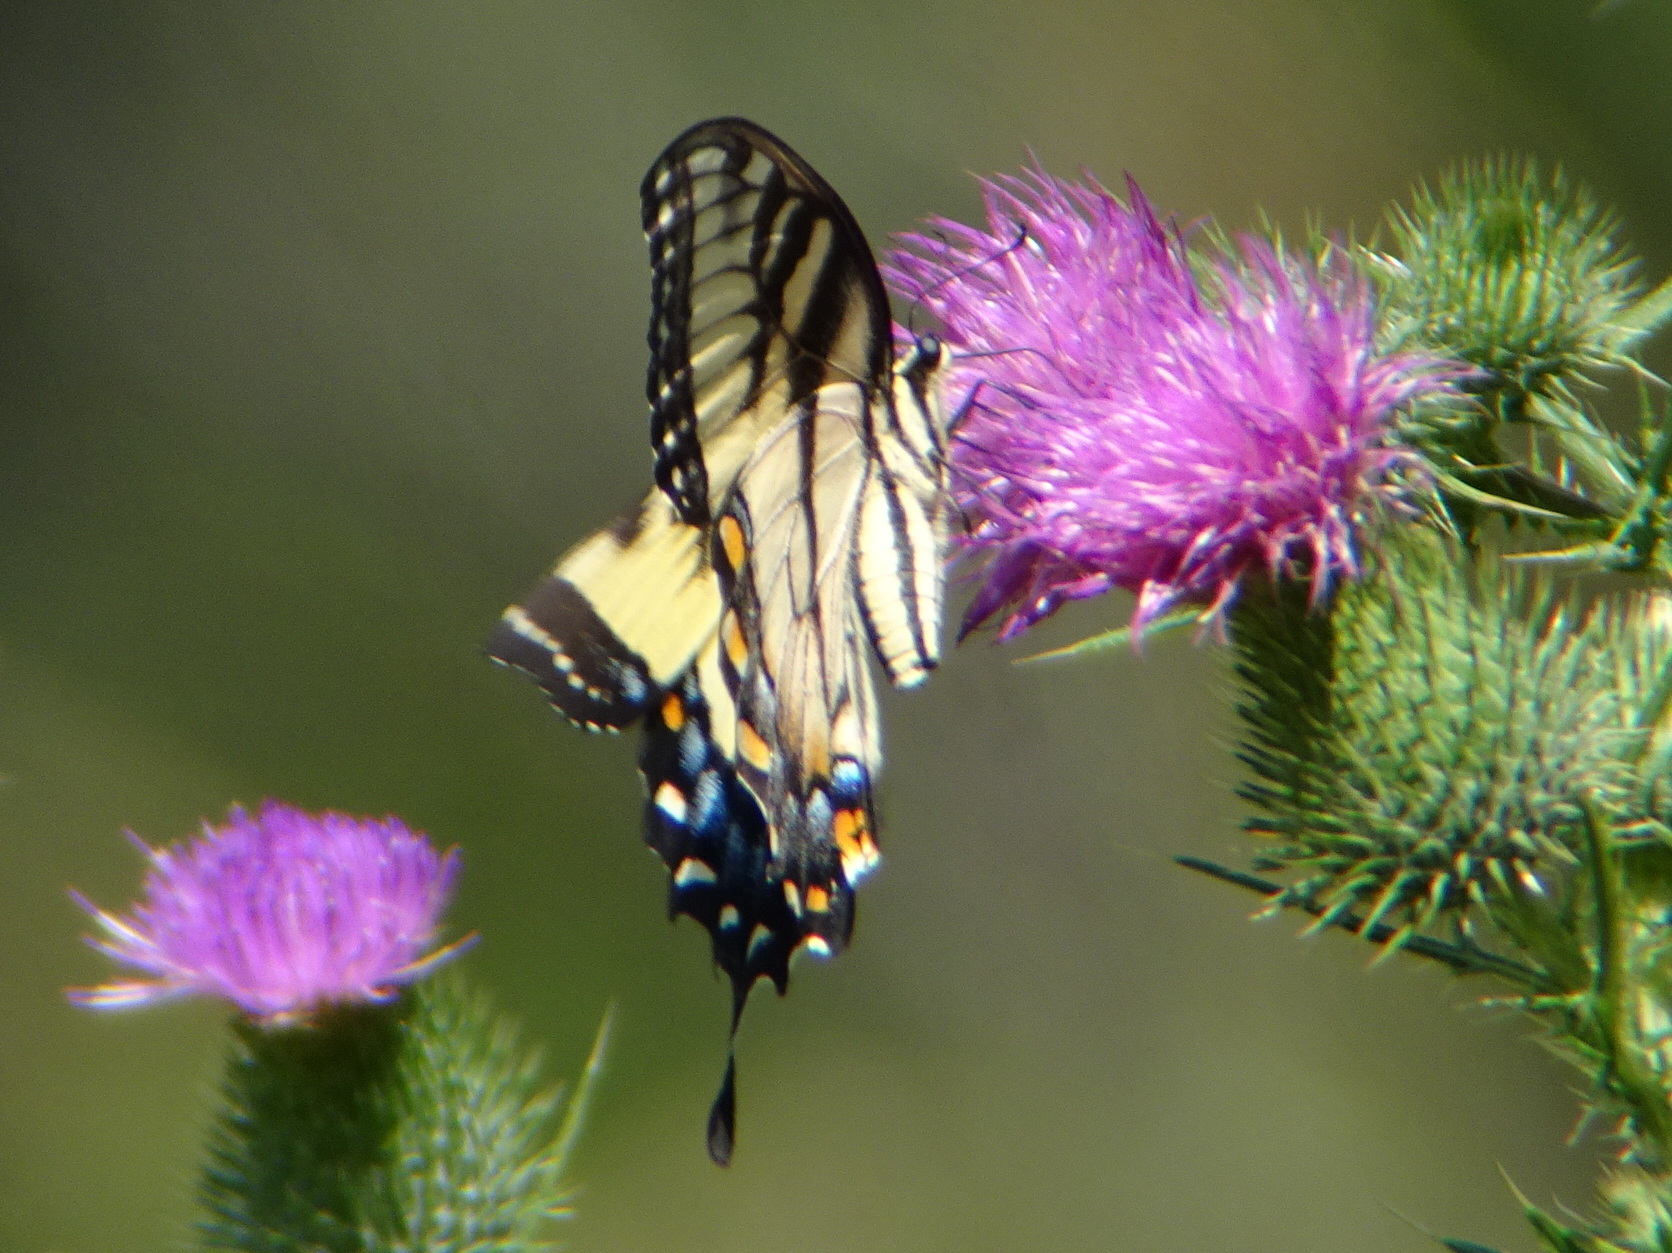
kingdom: Animalia
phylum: Arthropoda
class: Insecta
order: Lepidoptera
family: Papilionidae
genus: Papilio
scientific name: Papilio glaucus
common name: Tiger swallowtail
